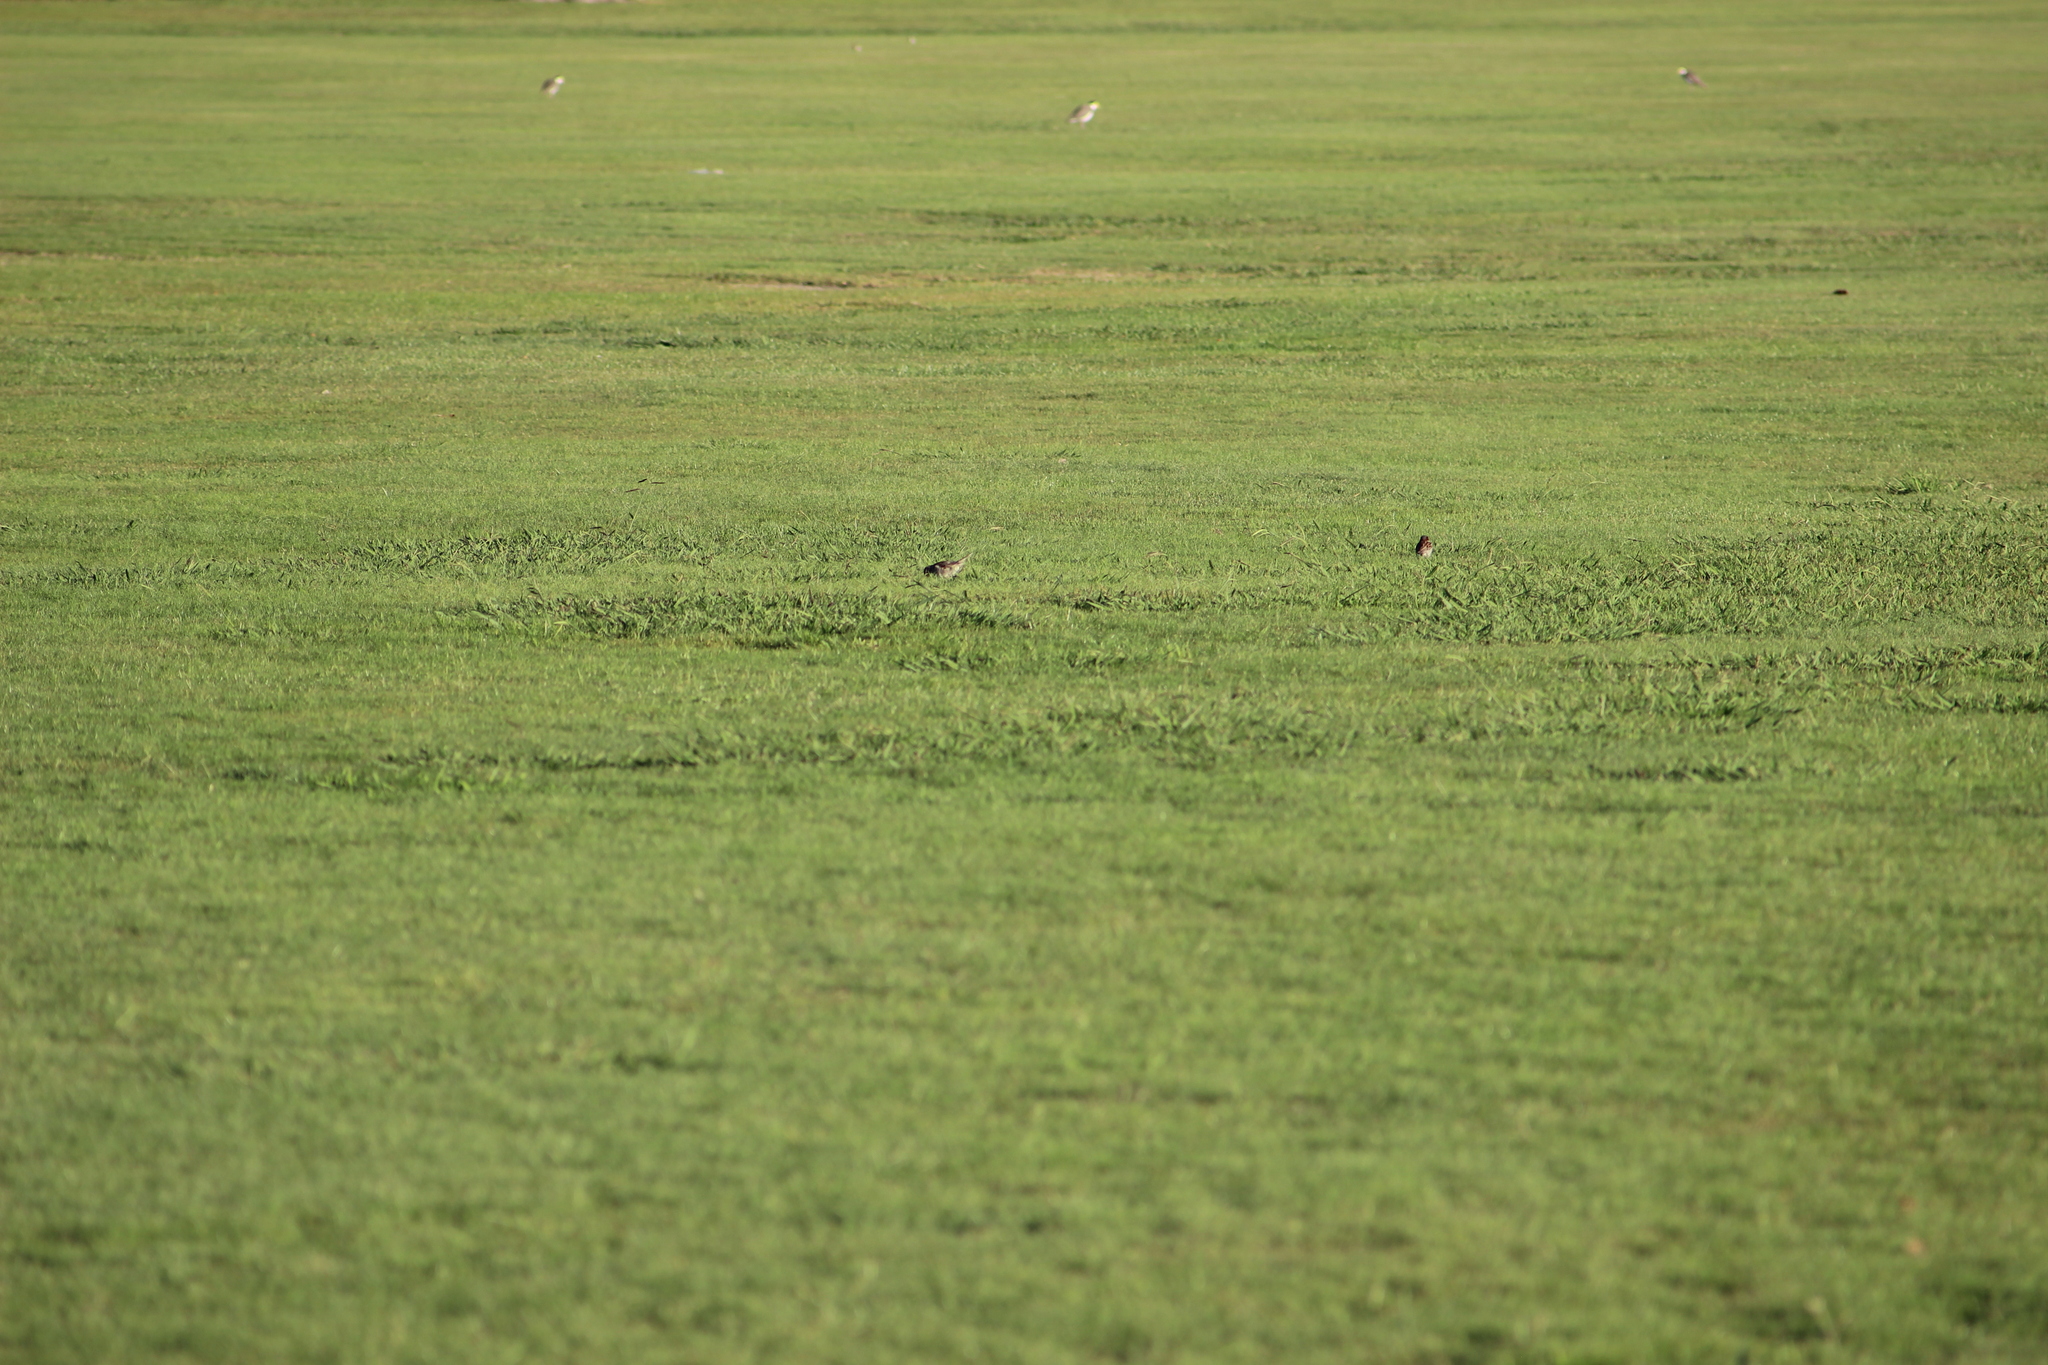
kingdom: Animalia
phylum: Chordata
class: Aves
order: Passeriformes
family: Passeridae
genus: Passer
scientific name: Passer domesticus
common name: House sparrow
